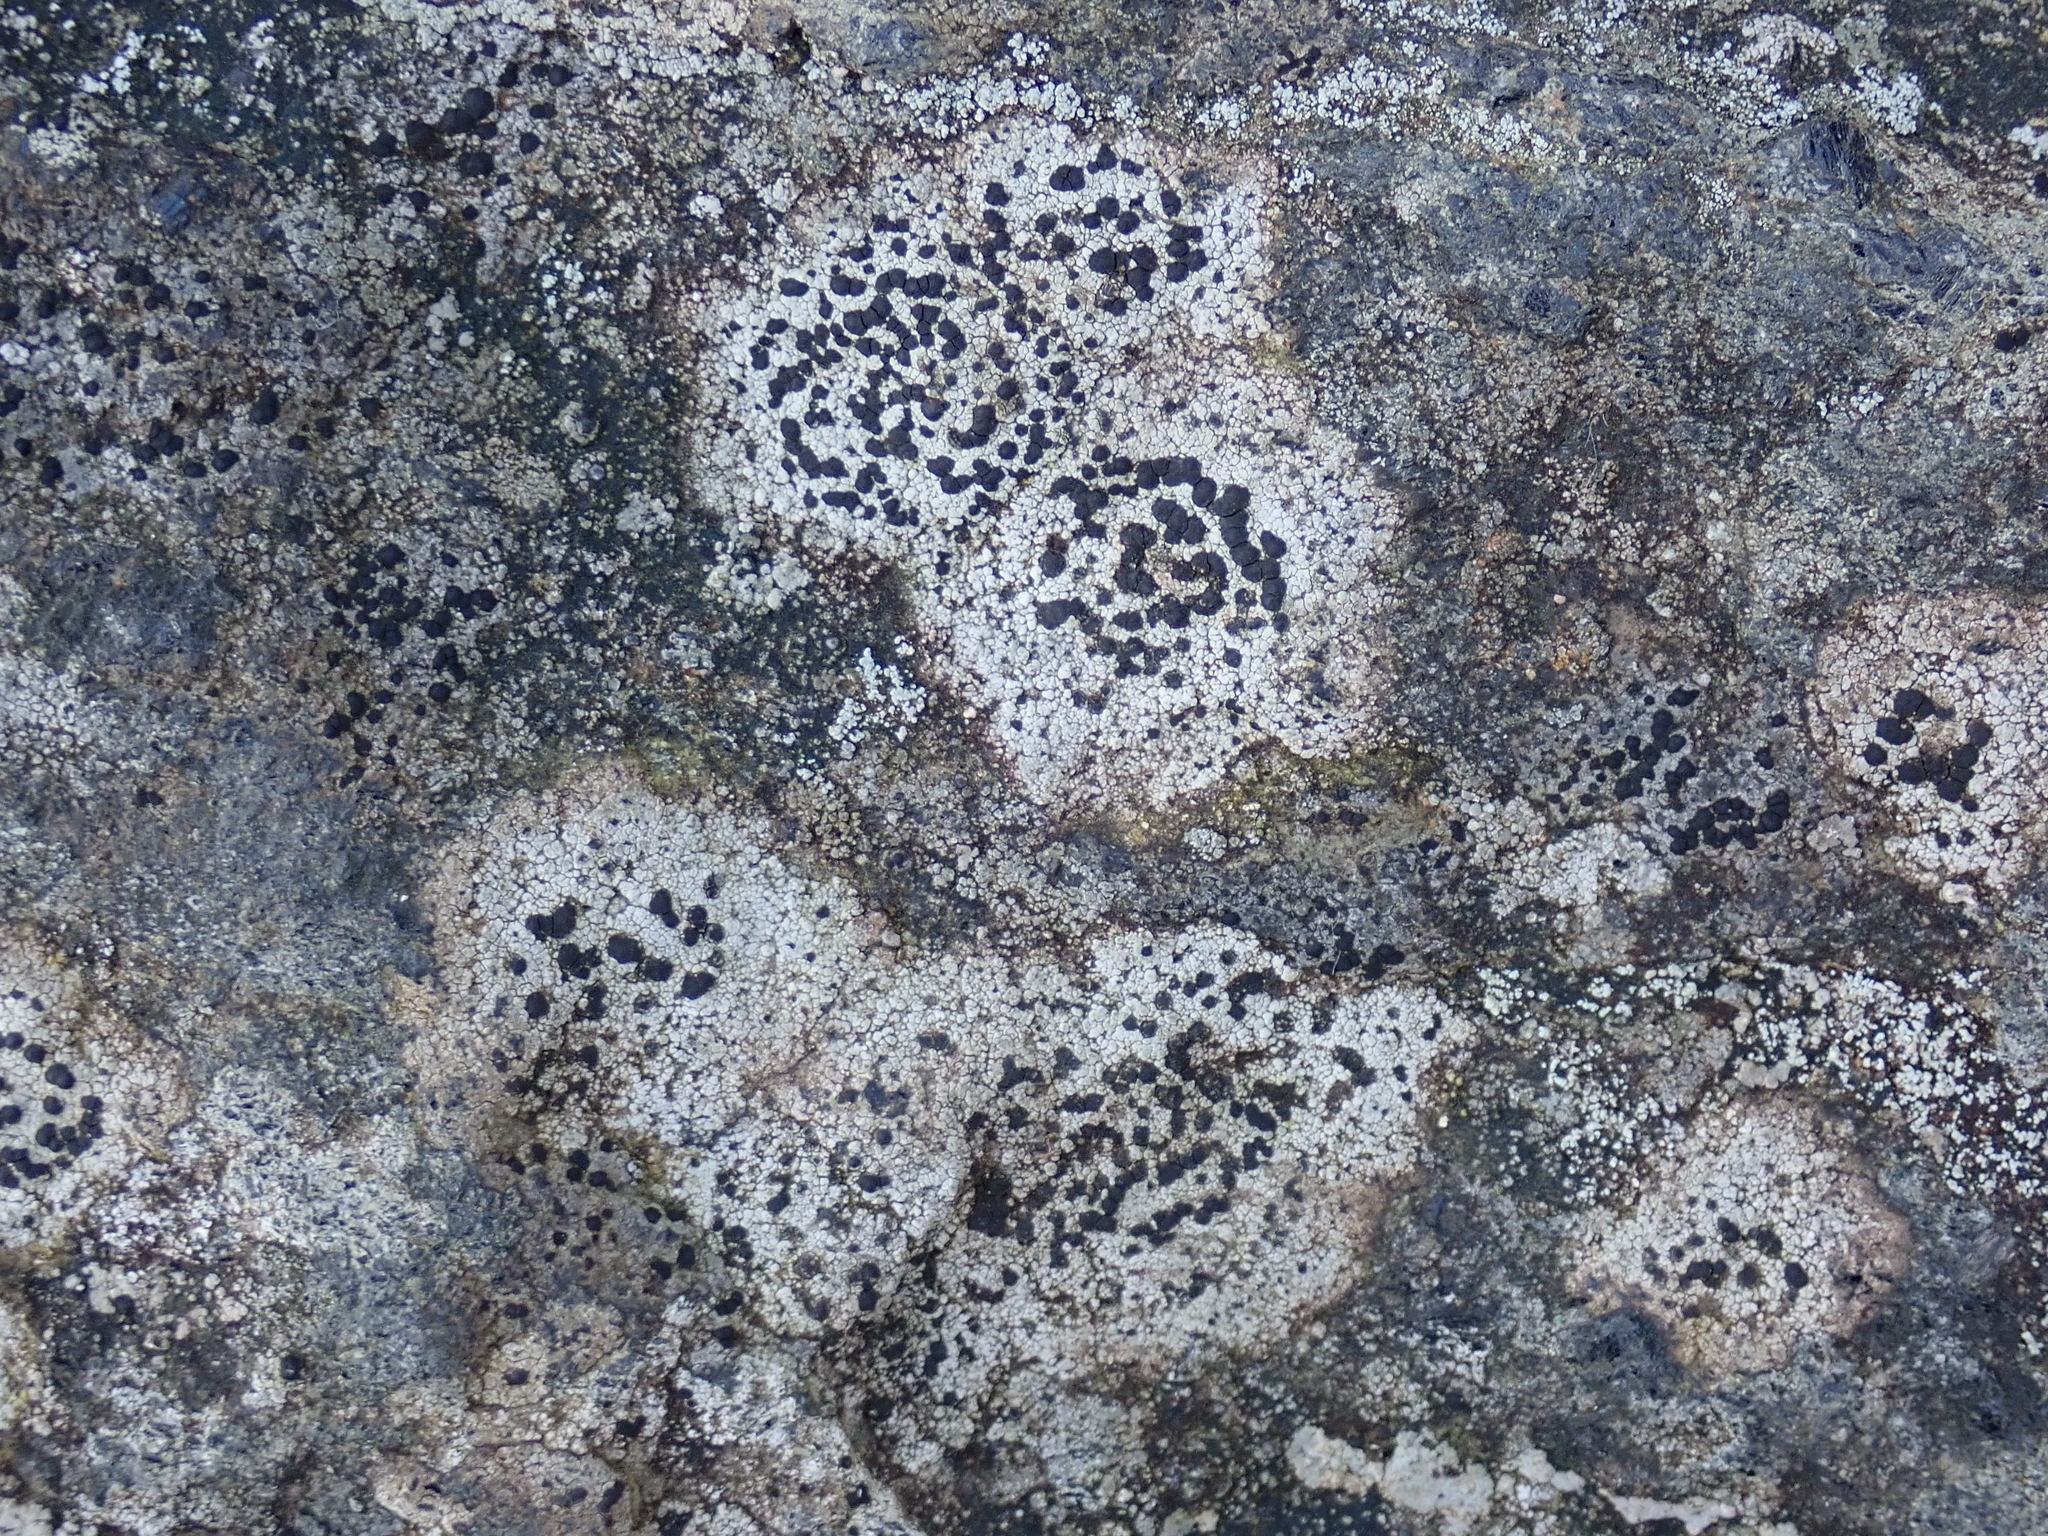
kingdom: Fungi
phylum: Ascomycota
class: Lecanoromycetes
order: Lecideales
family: Lecideaceae
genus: Porpidia
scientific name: Porpidia crustulata
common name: Concentric boulder lichen
